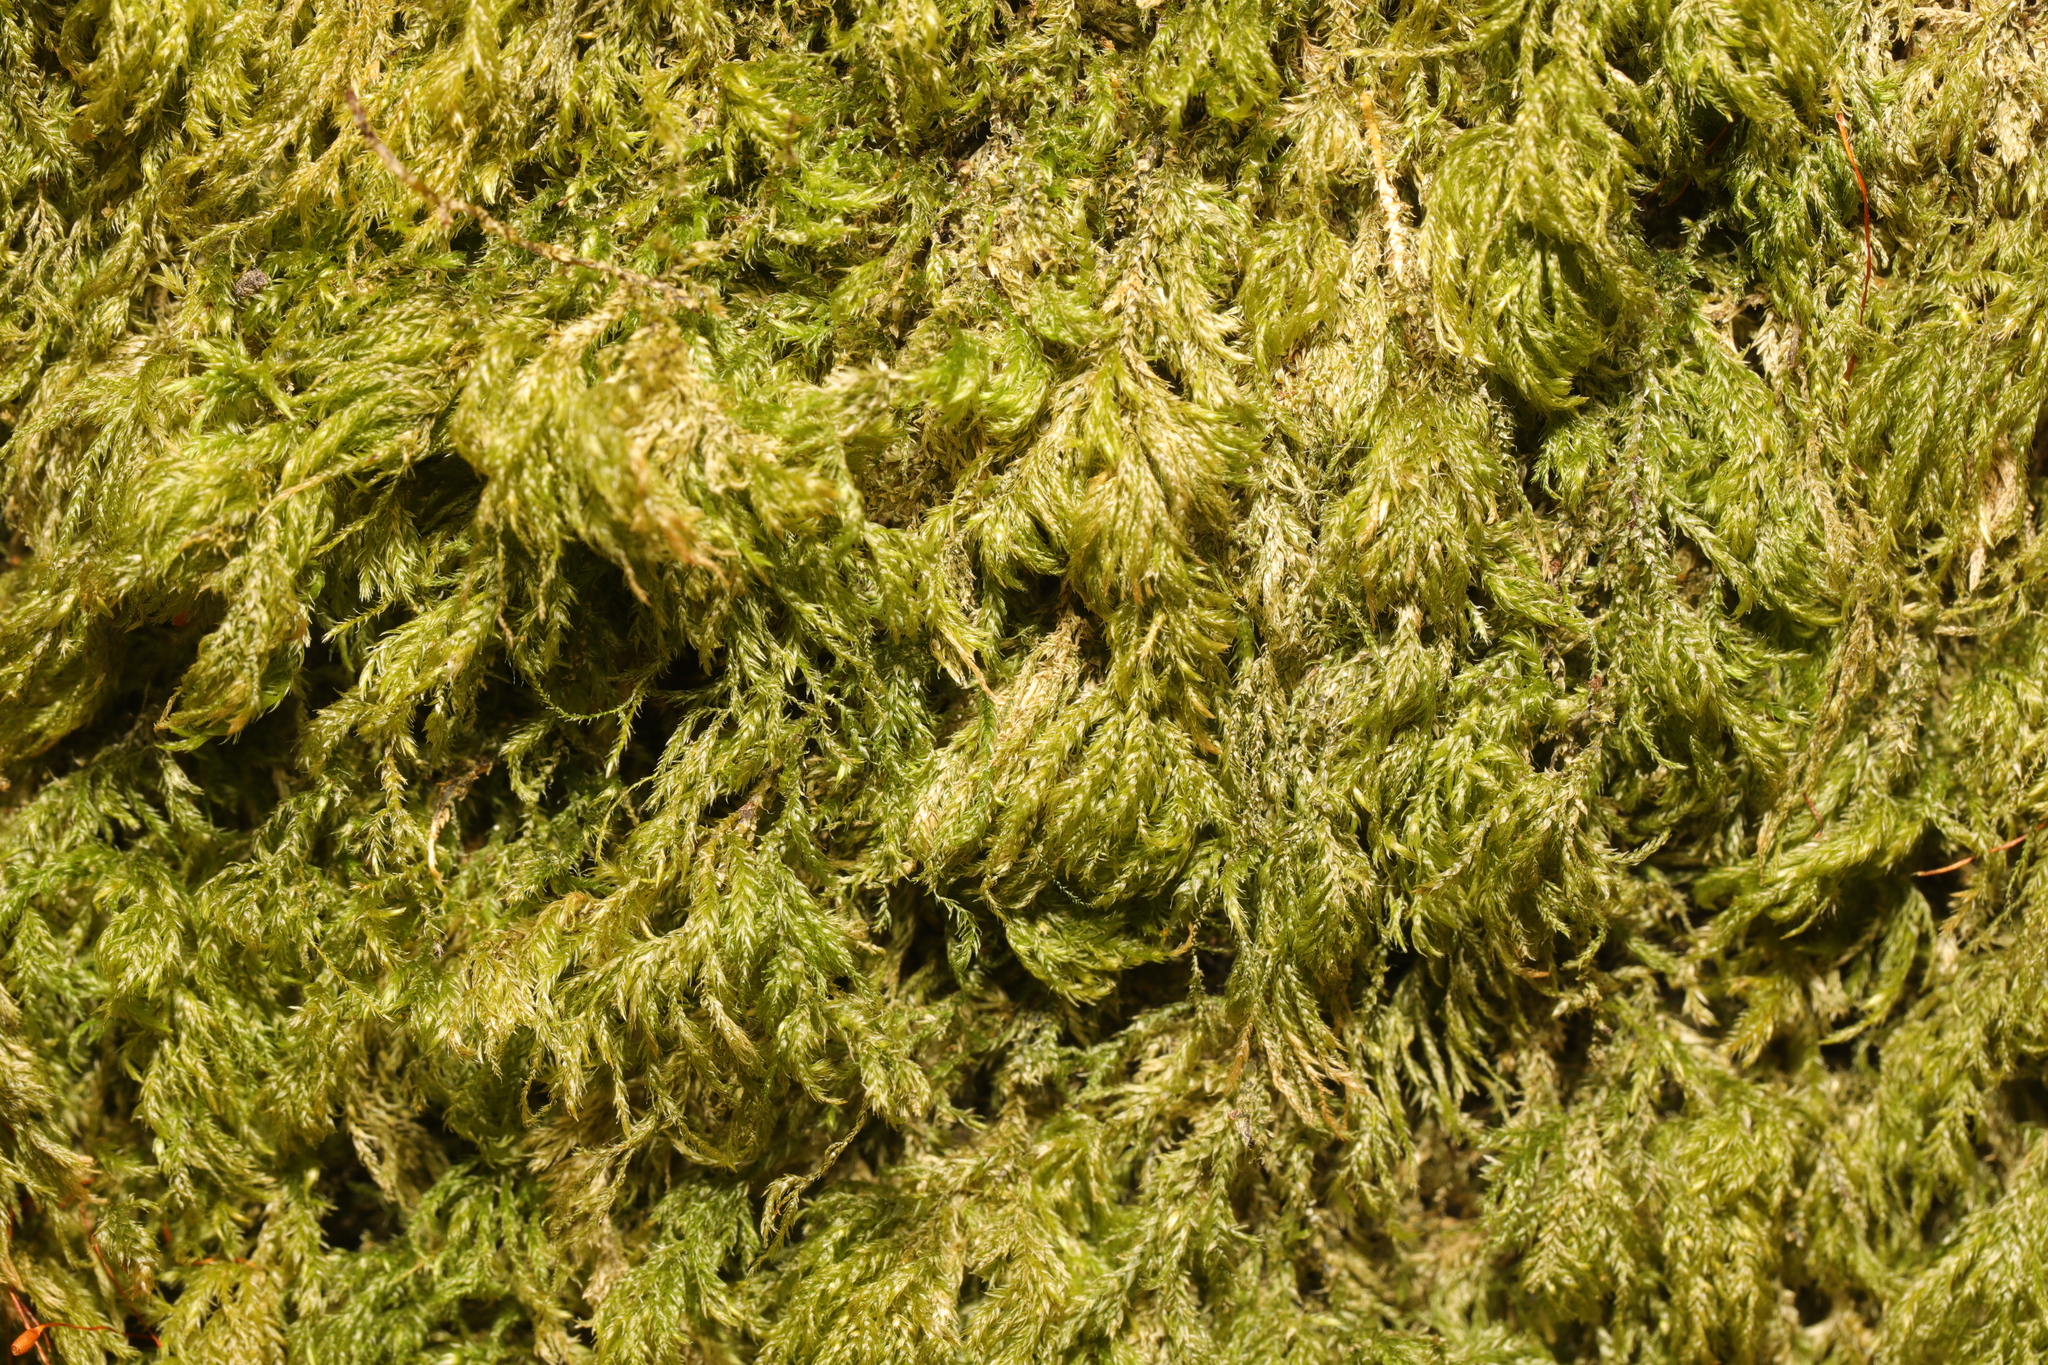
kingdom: Plantae
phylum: Bryophyta
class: Bryopsida
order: Hypnales
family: Lembophyllaceae
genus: Pseudisothecium
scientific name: Pseudisothecium myosuroides
